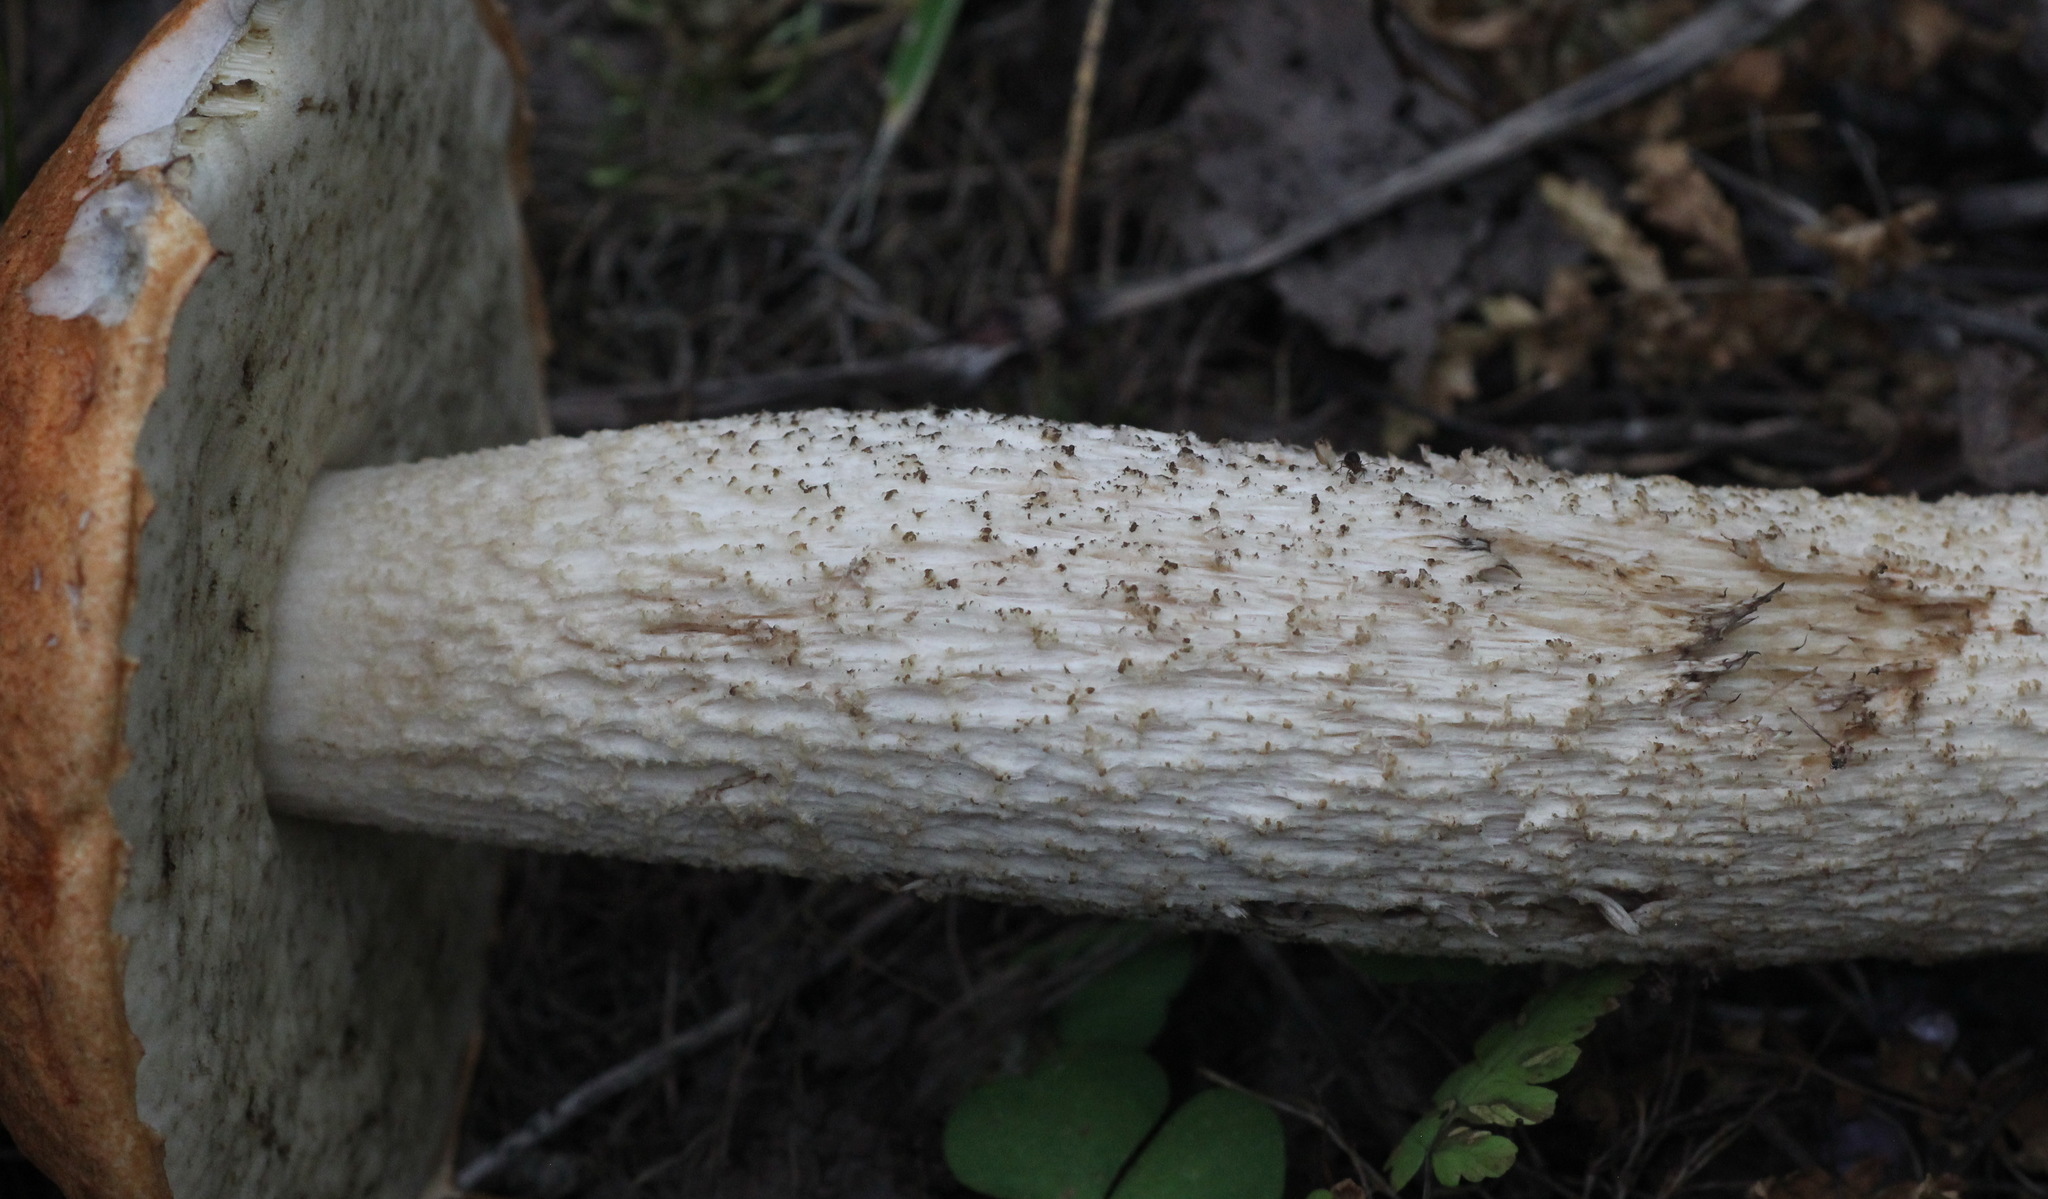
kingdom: Fungi
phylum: Basidiomycota
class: Agaricomycetes
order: Boletales
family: Boletaceae
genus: Leccinum
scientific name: Leccinum albostipitatum
